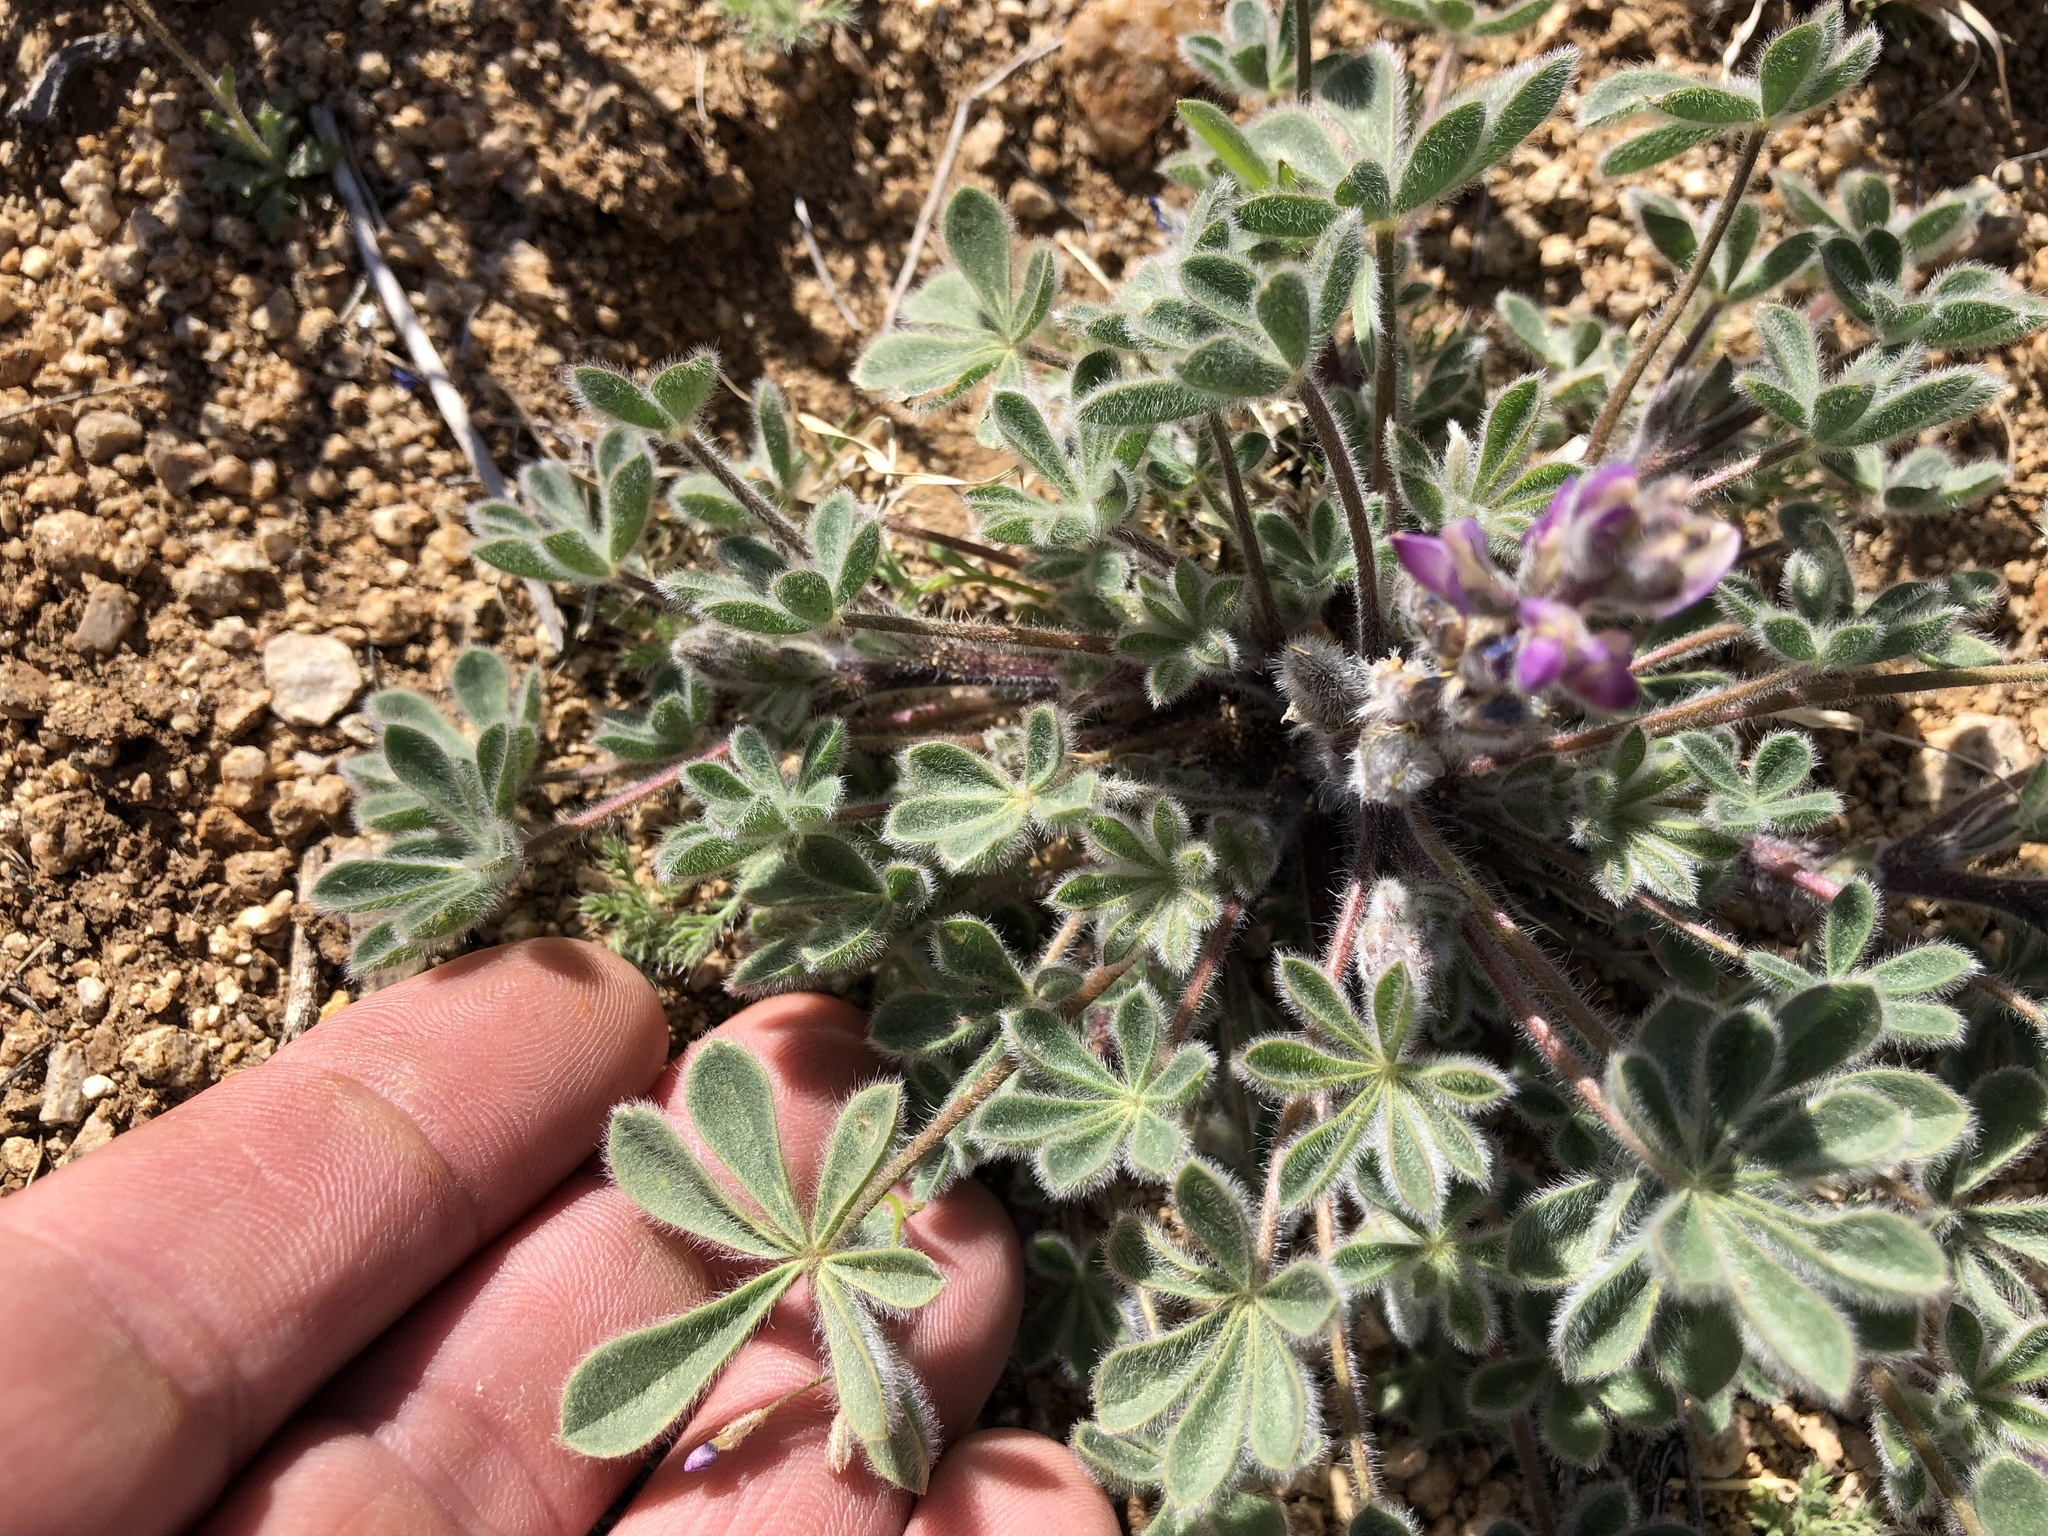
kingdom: Plantae
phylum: Tracheophyta
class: Magnoliopsida
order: Fabales
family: Fabaceae
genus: Lupinus
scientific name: Lupinus concinnus
